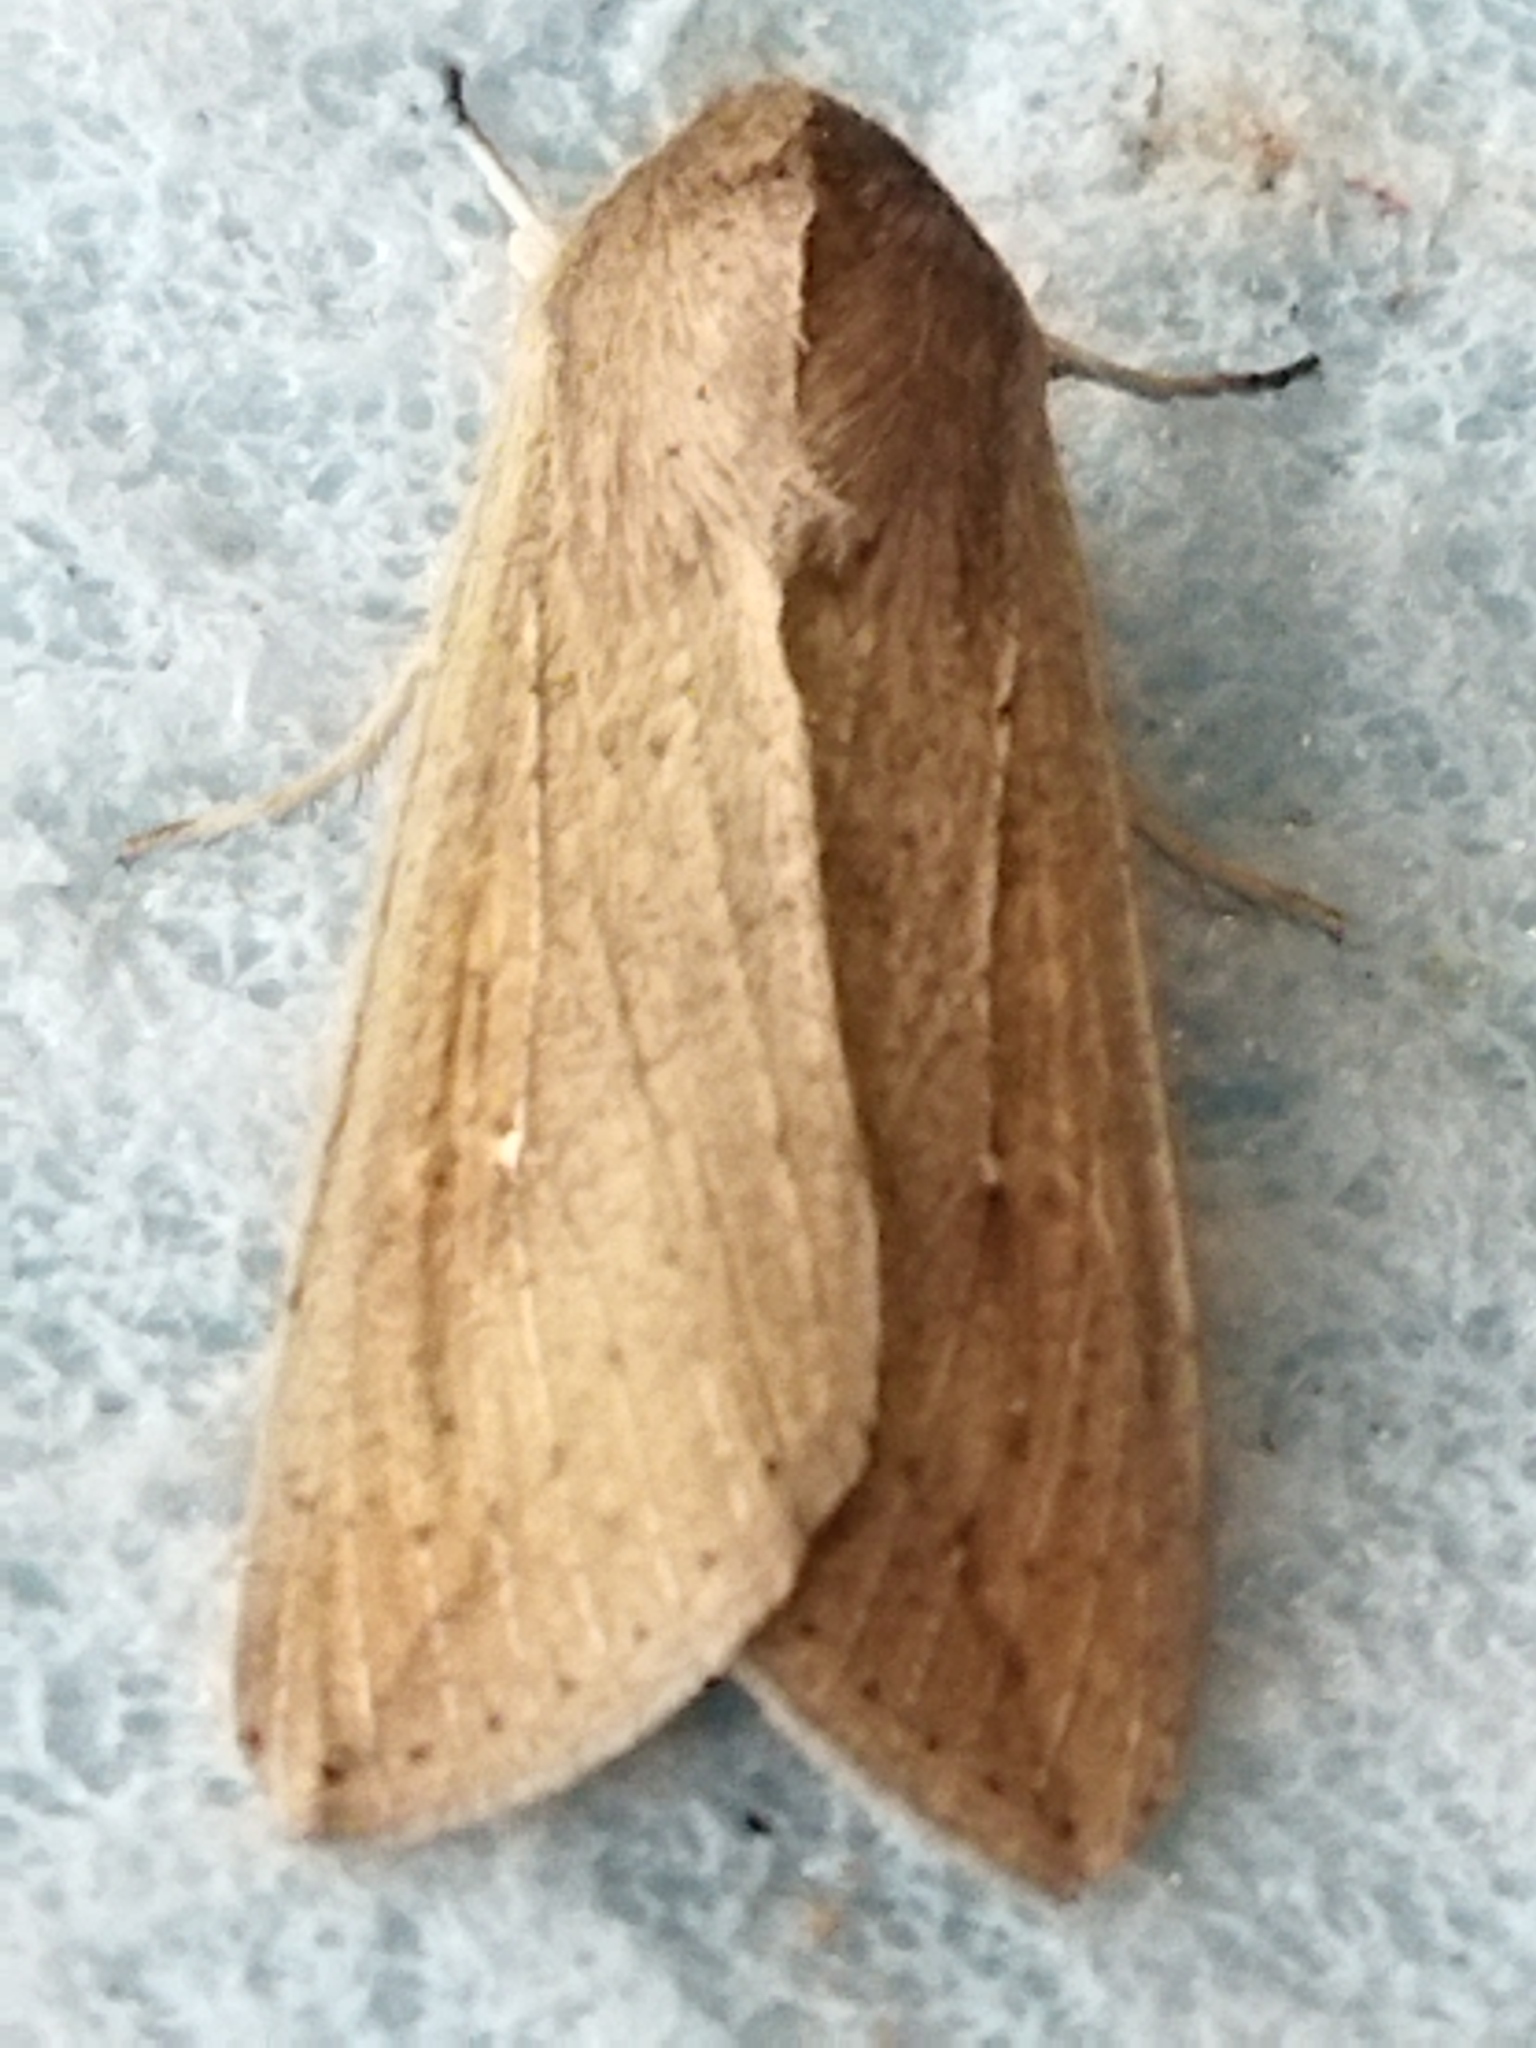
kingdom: Animalia
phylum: Arthropoda
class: Insecta
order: Lepidoptera
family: Noctuidae
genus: Mythimna
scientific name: Mythimna unipuncta
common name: White-speck
